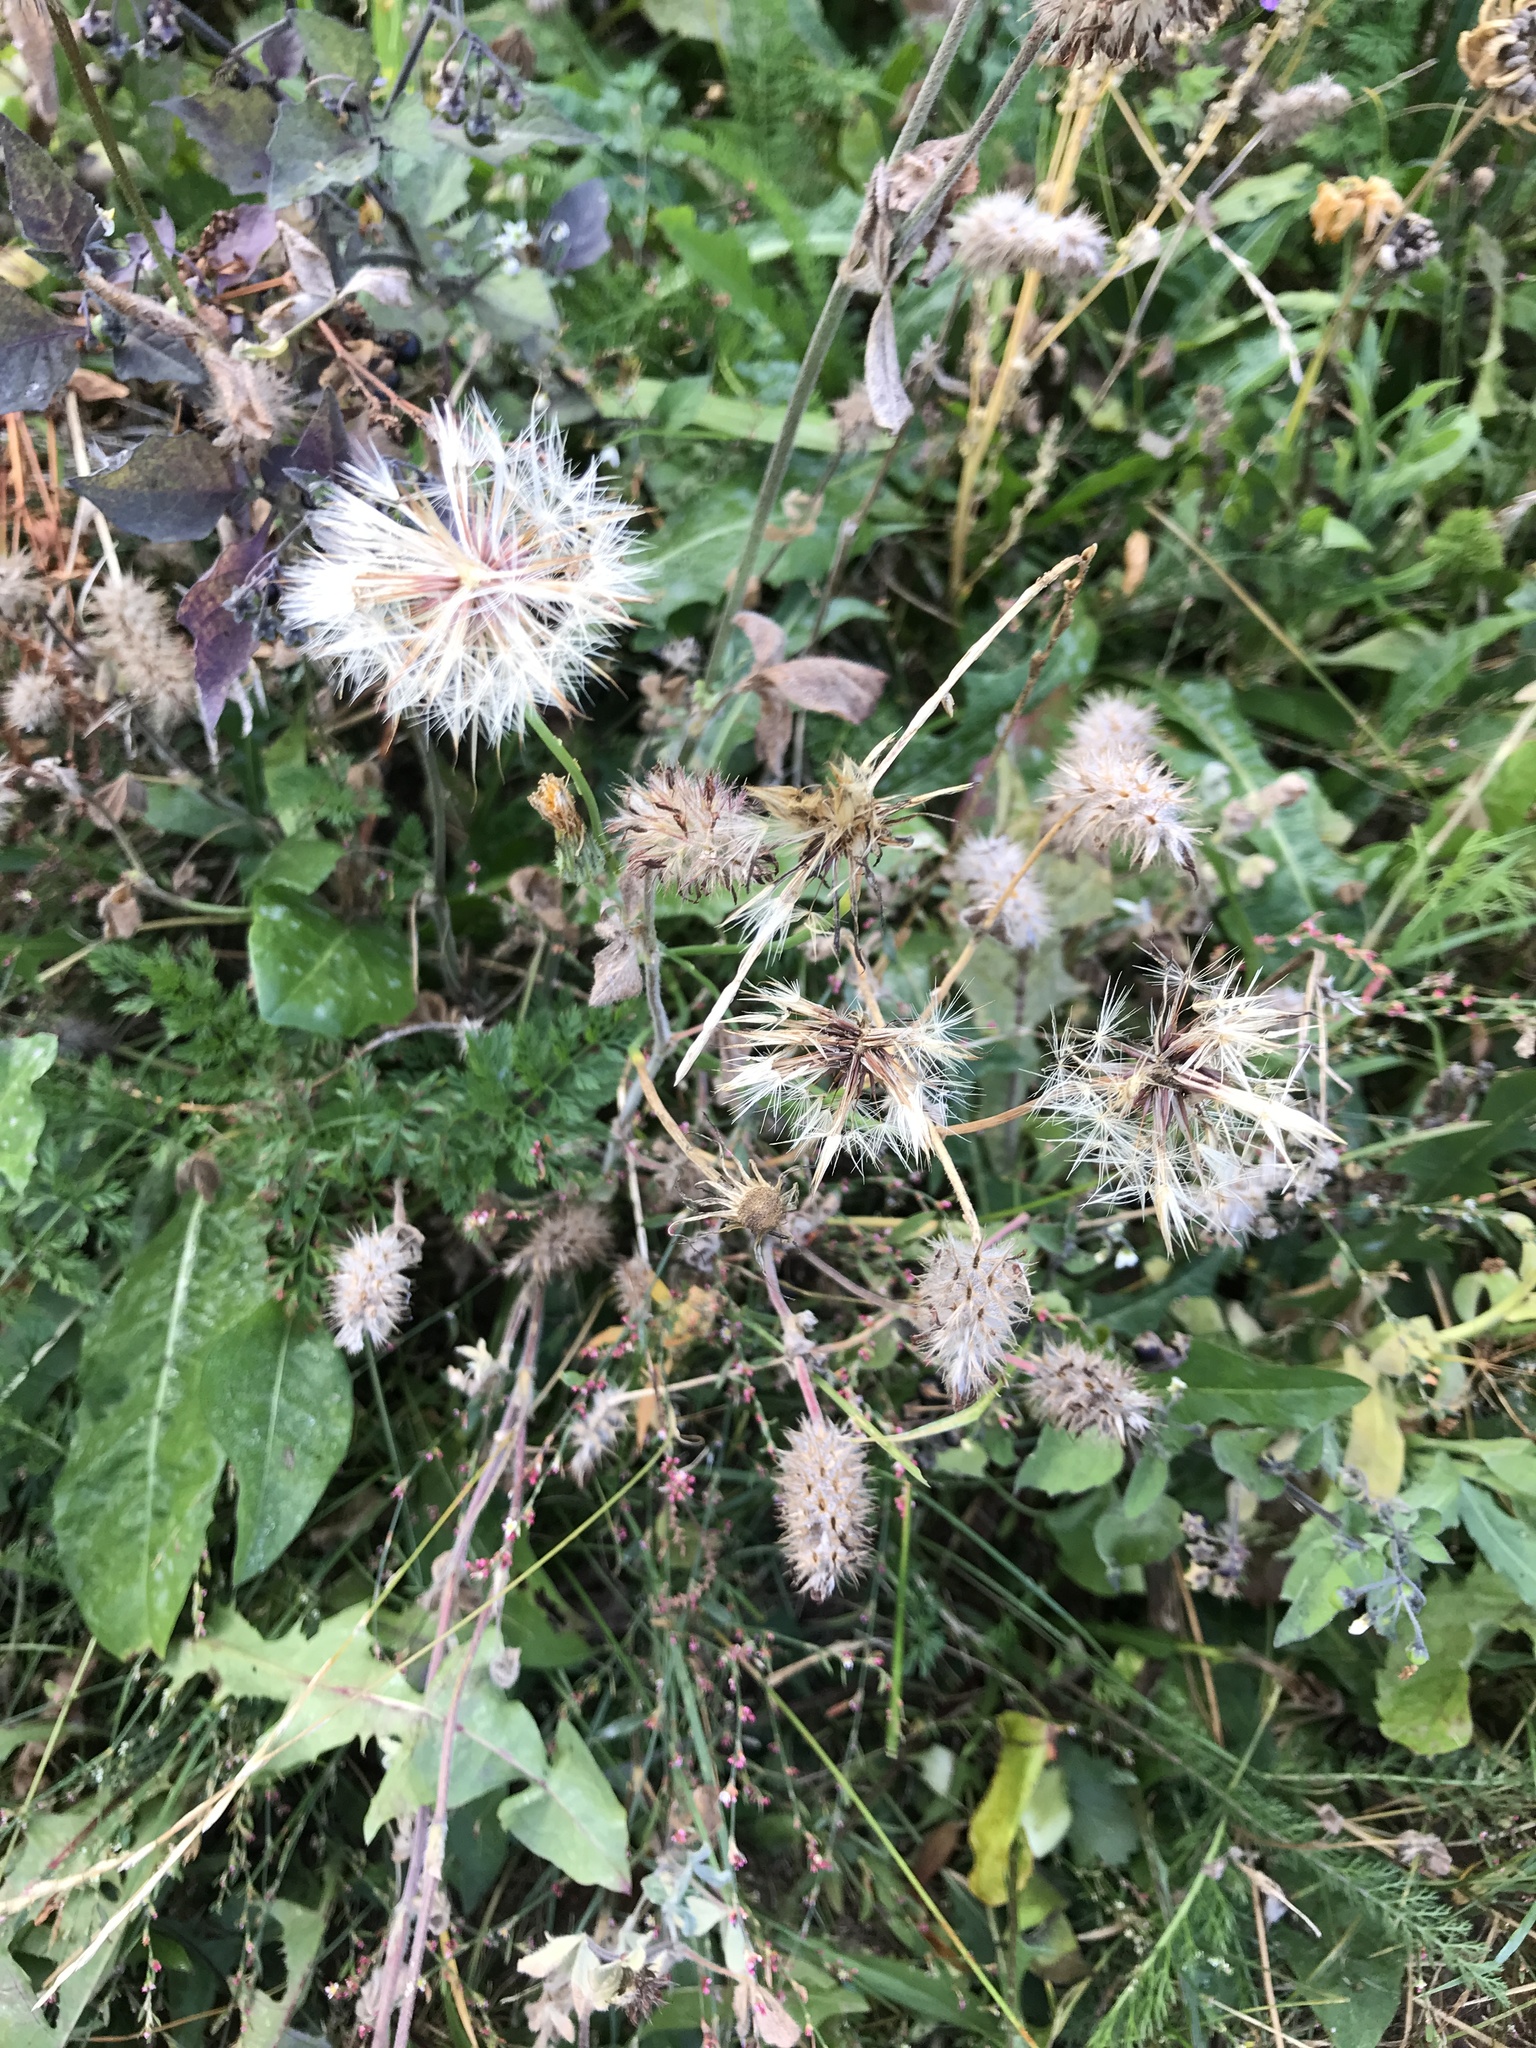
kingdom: Plantae
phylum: Tracheophyta
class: Magnoliopsida
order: Fabales
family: Fabaceae
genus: Trifolium
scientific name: Trifolium arvense
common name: Hare's-foot clover
